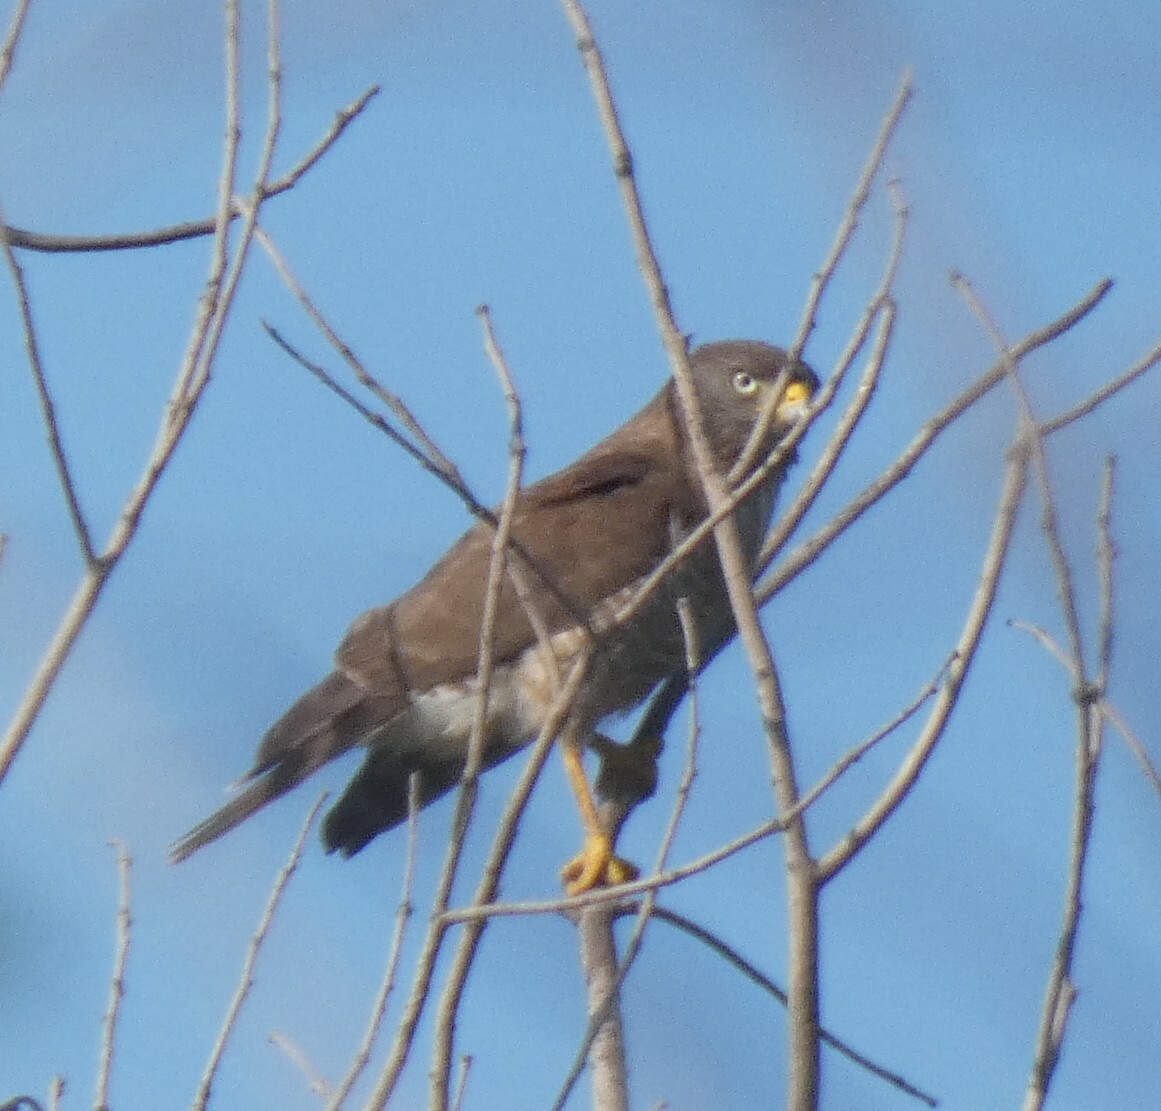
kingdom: Animalia
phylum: Chordata
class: Aves
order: Accipitriformes
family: Accipitridae
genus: Rupornis
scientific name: Rupornis magnirostris
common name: Roadside hawk
